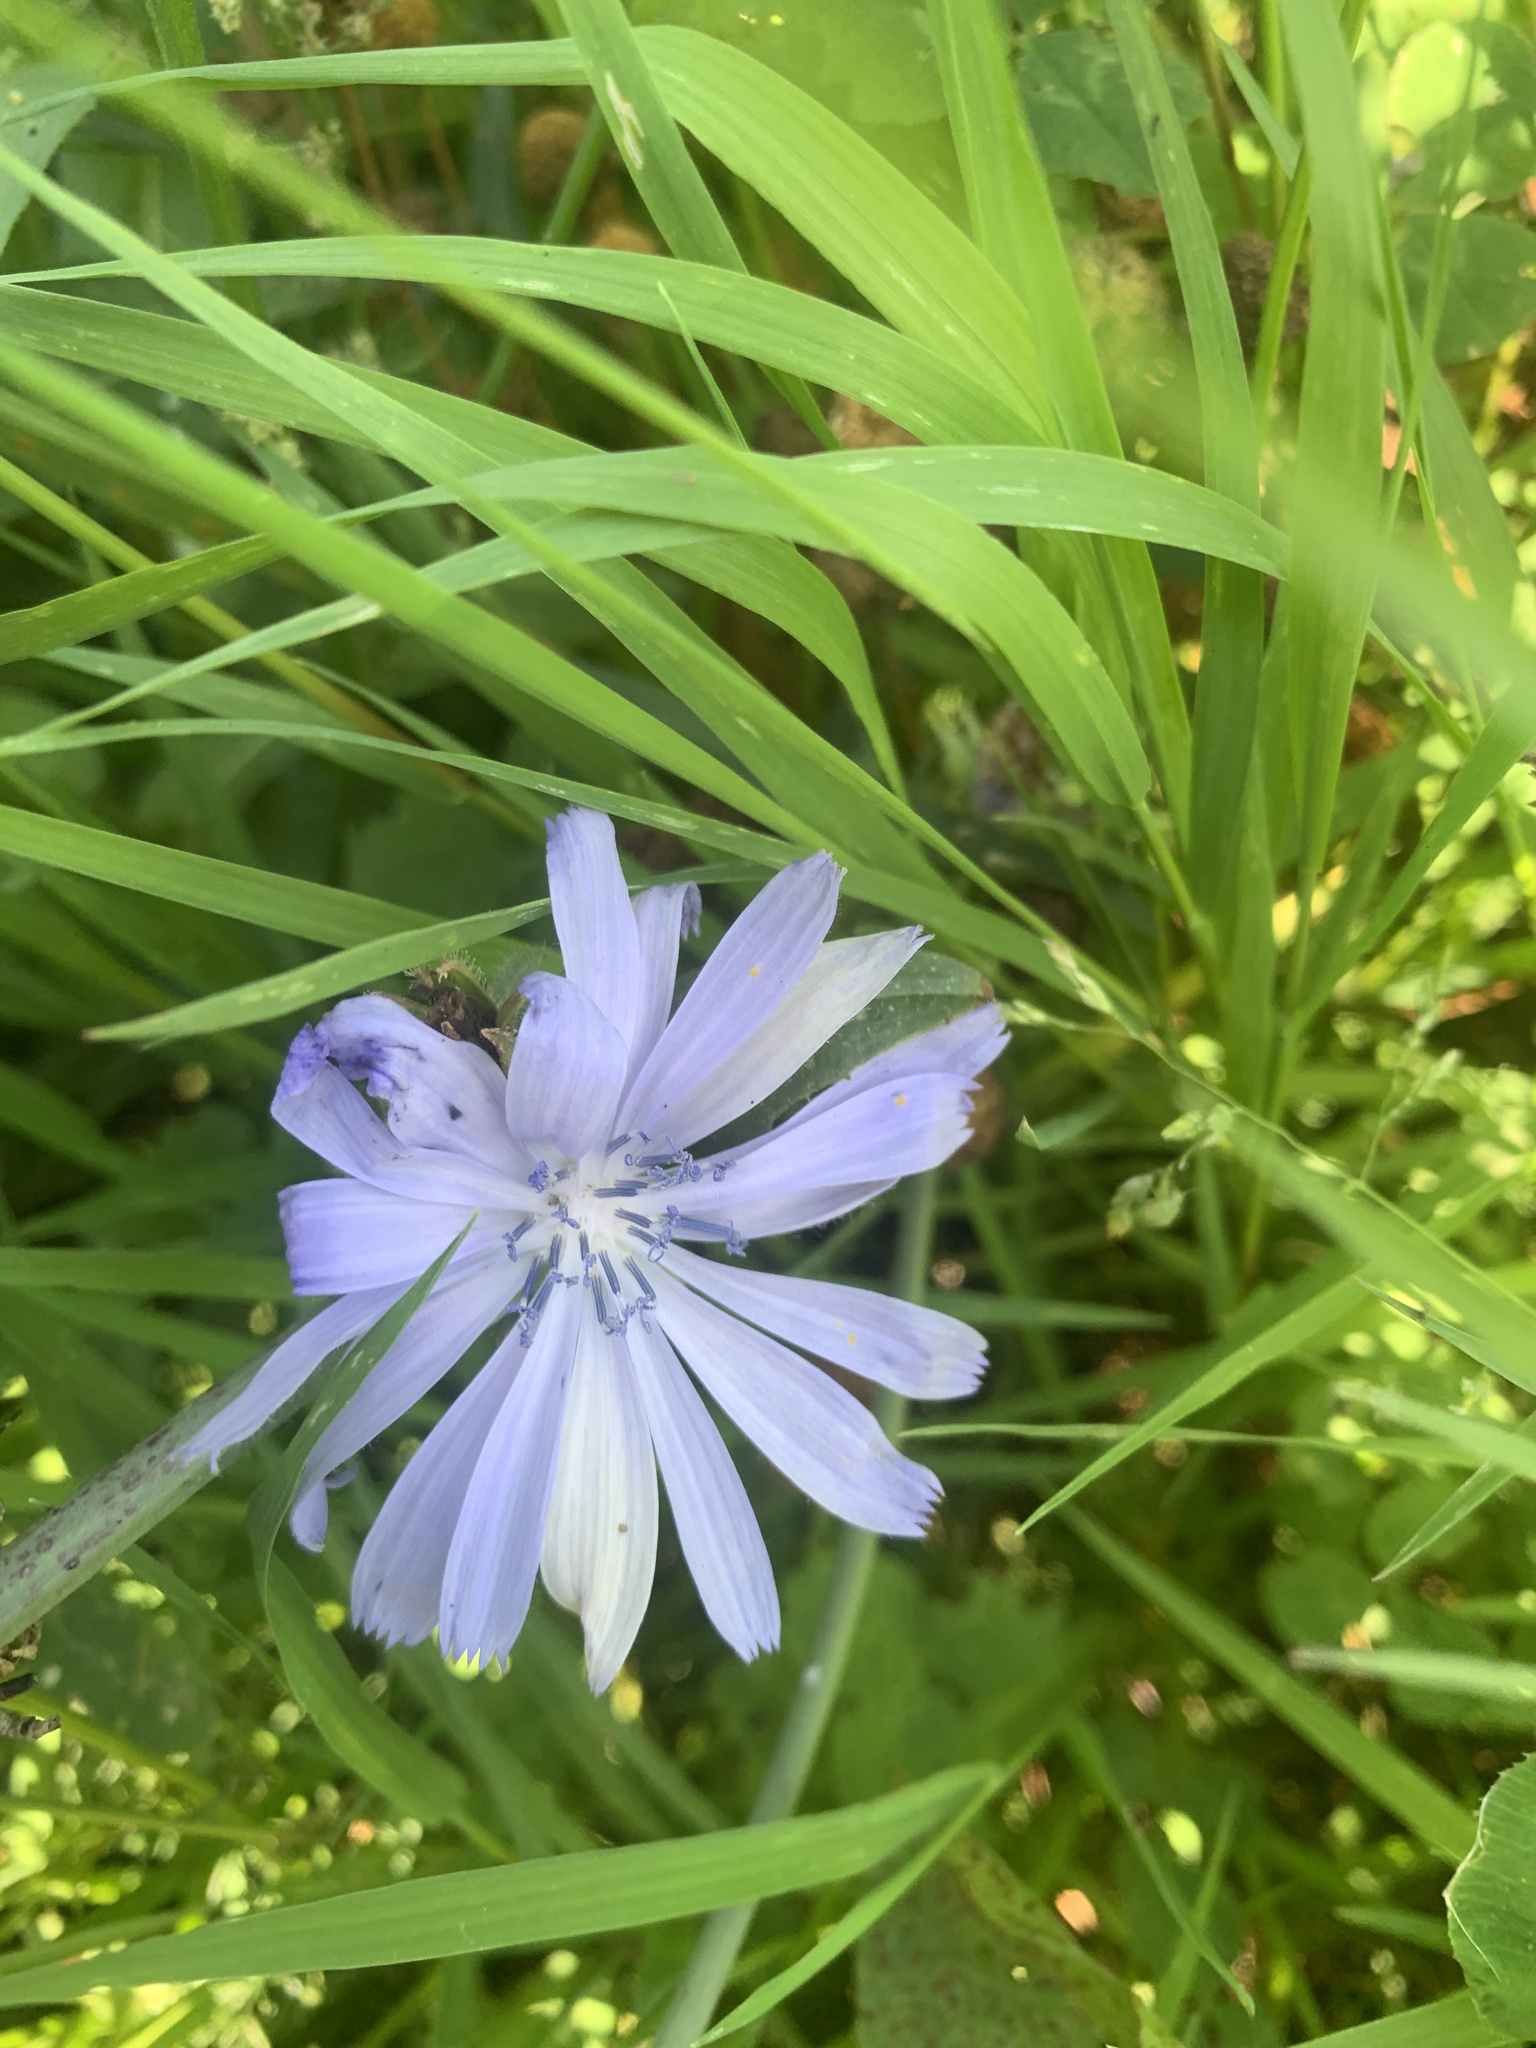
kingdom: Plantae
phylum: Tracheophyta
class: Magnoliopsida
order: Asterales
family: Asteraceae
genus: Cichorium
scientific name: Cichorium intybus
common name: Chicory
